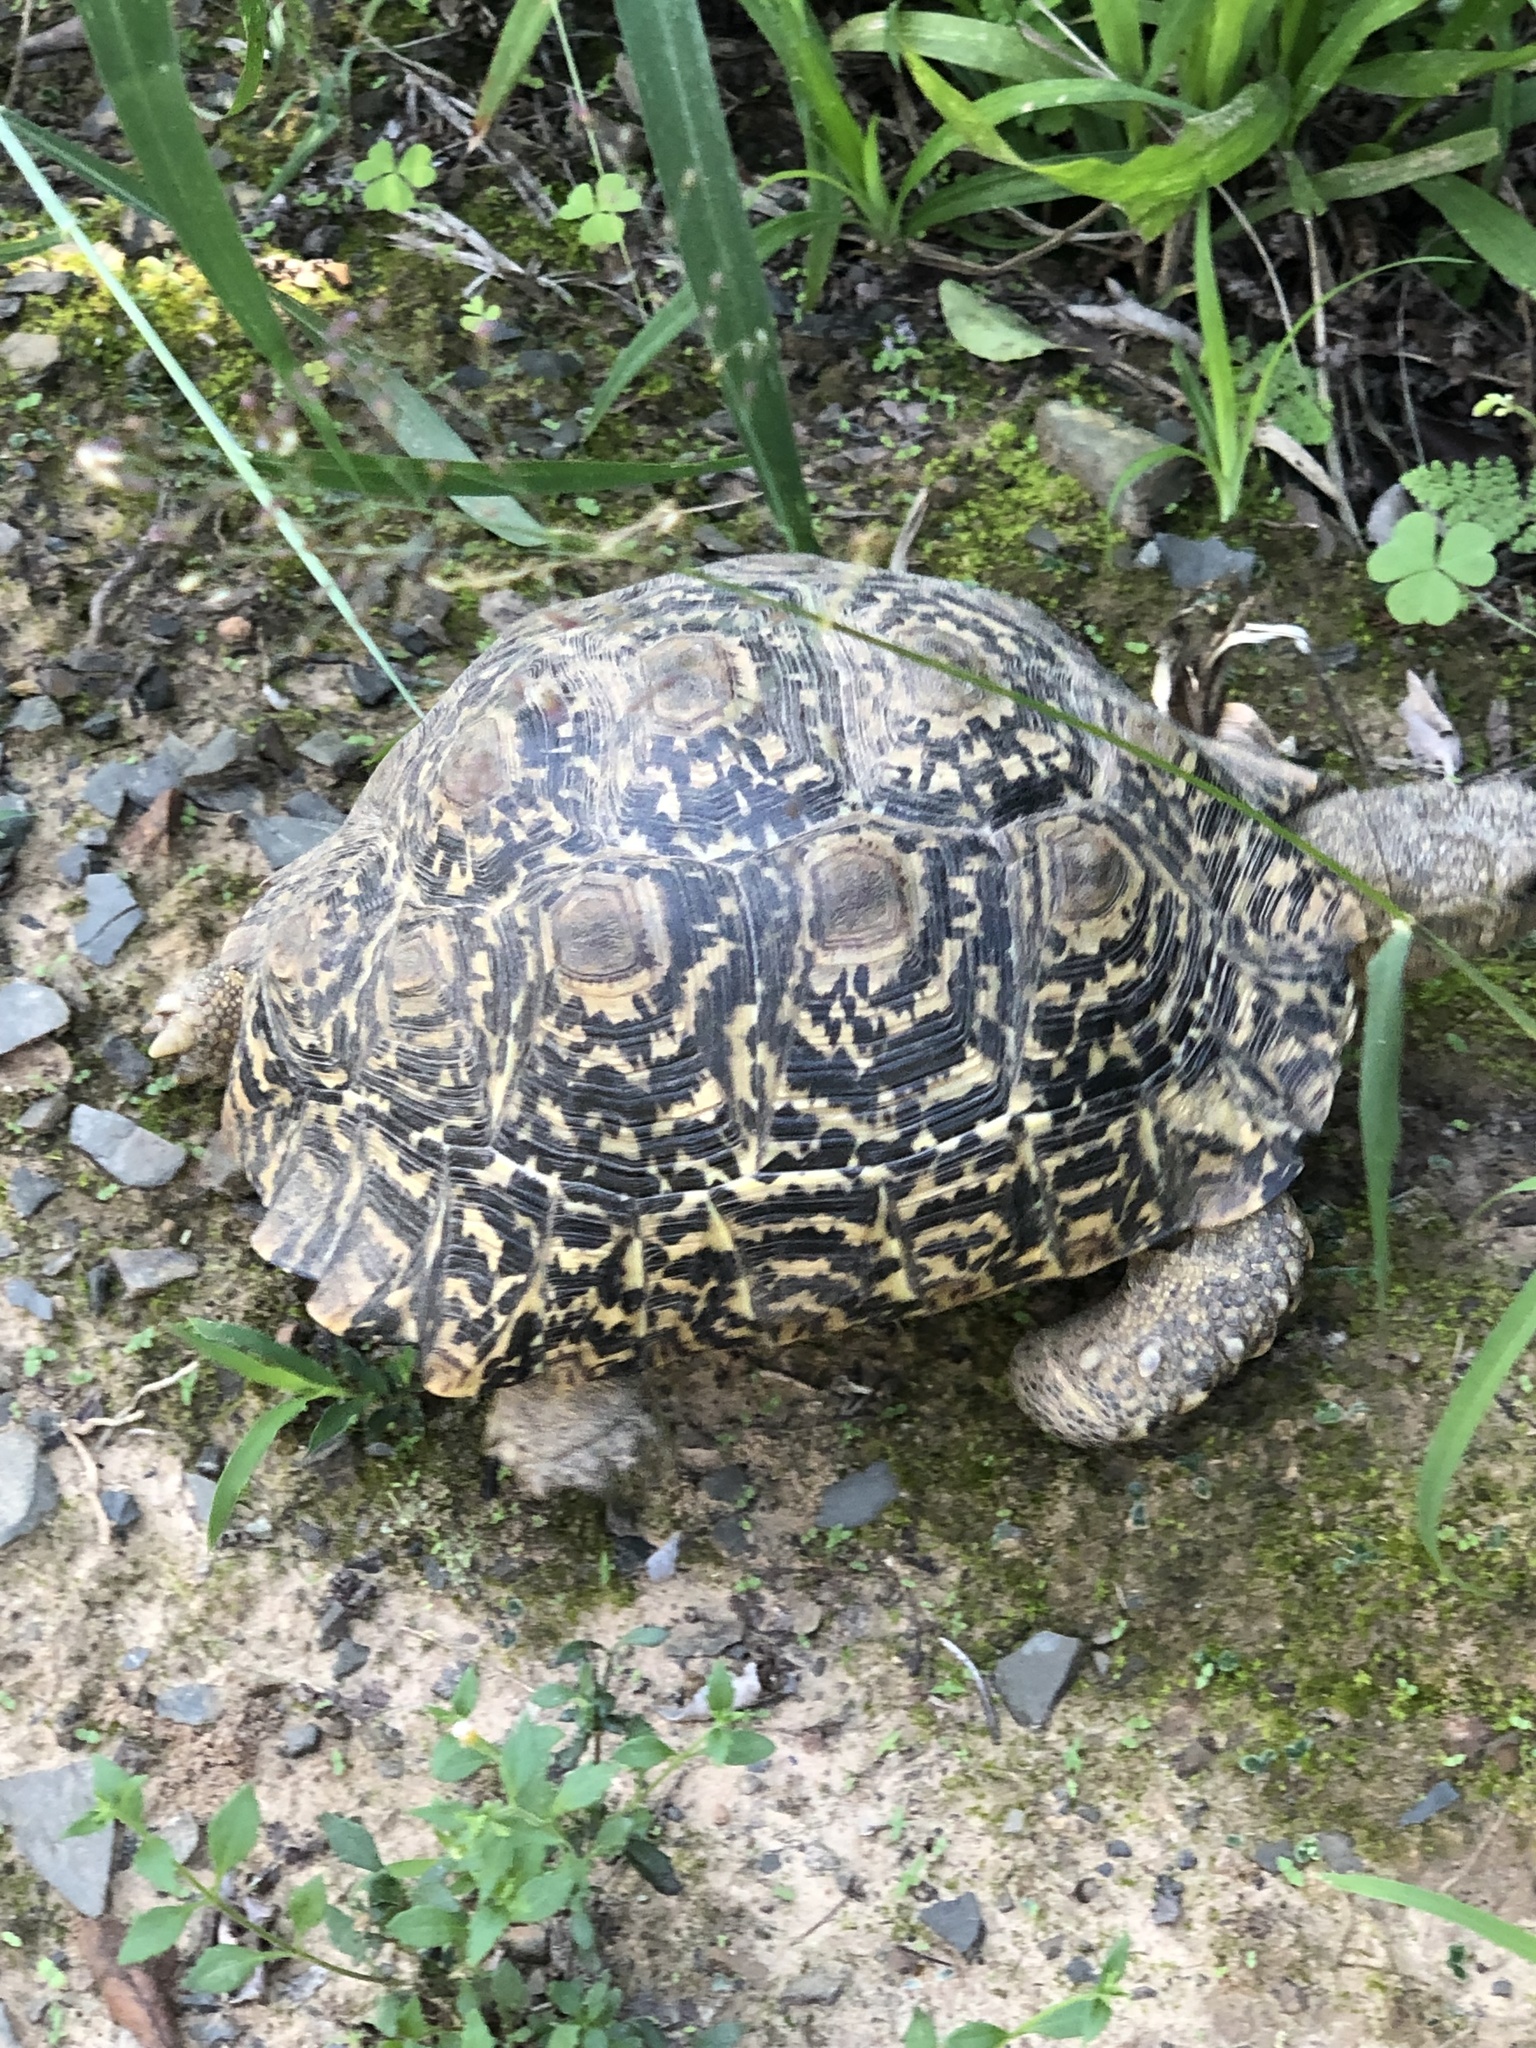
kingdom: Animalia
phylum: Chordata
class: Testudines
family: Testudinidae
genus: Stigmochelys
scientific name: Stigmochelys pardalis
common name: Leopard tortoise
